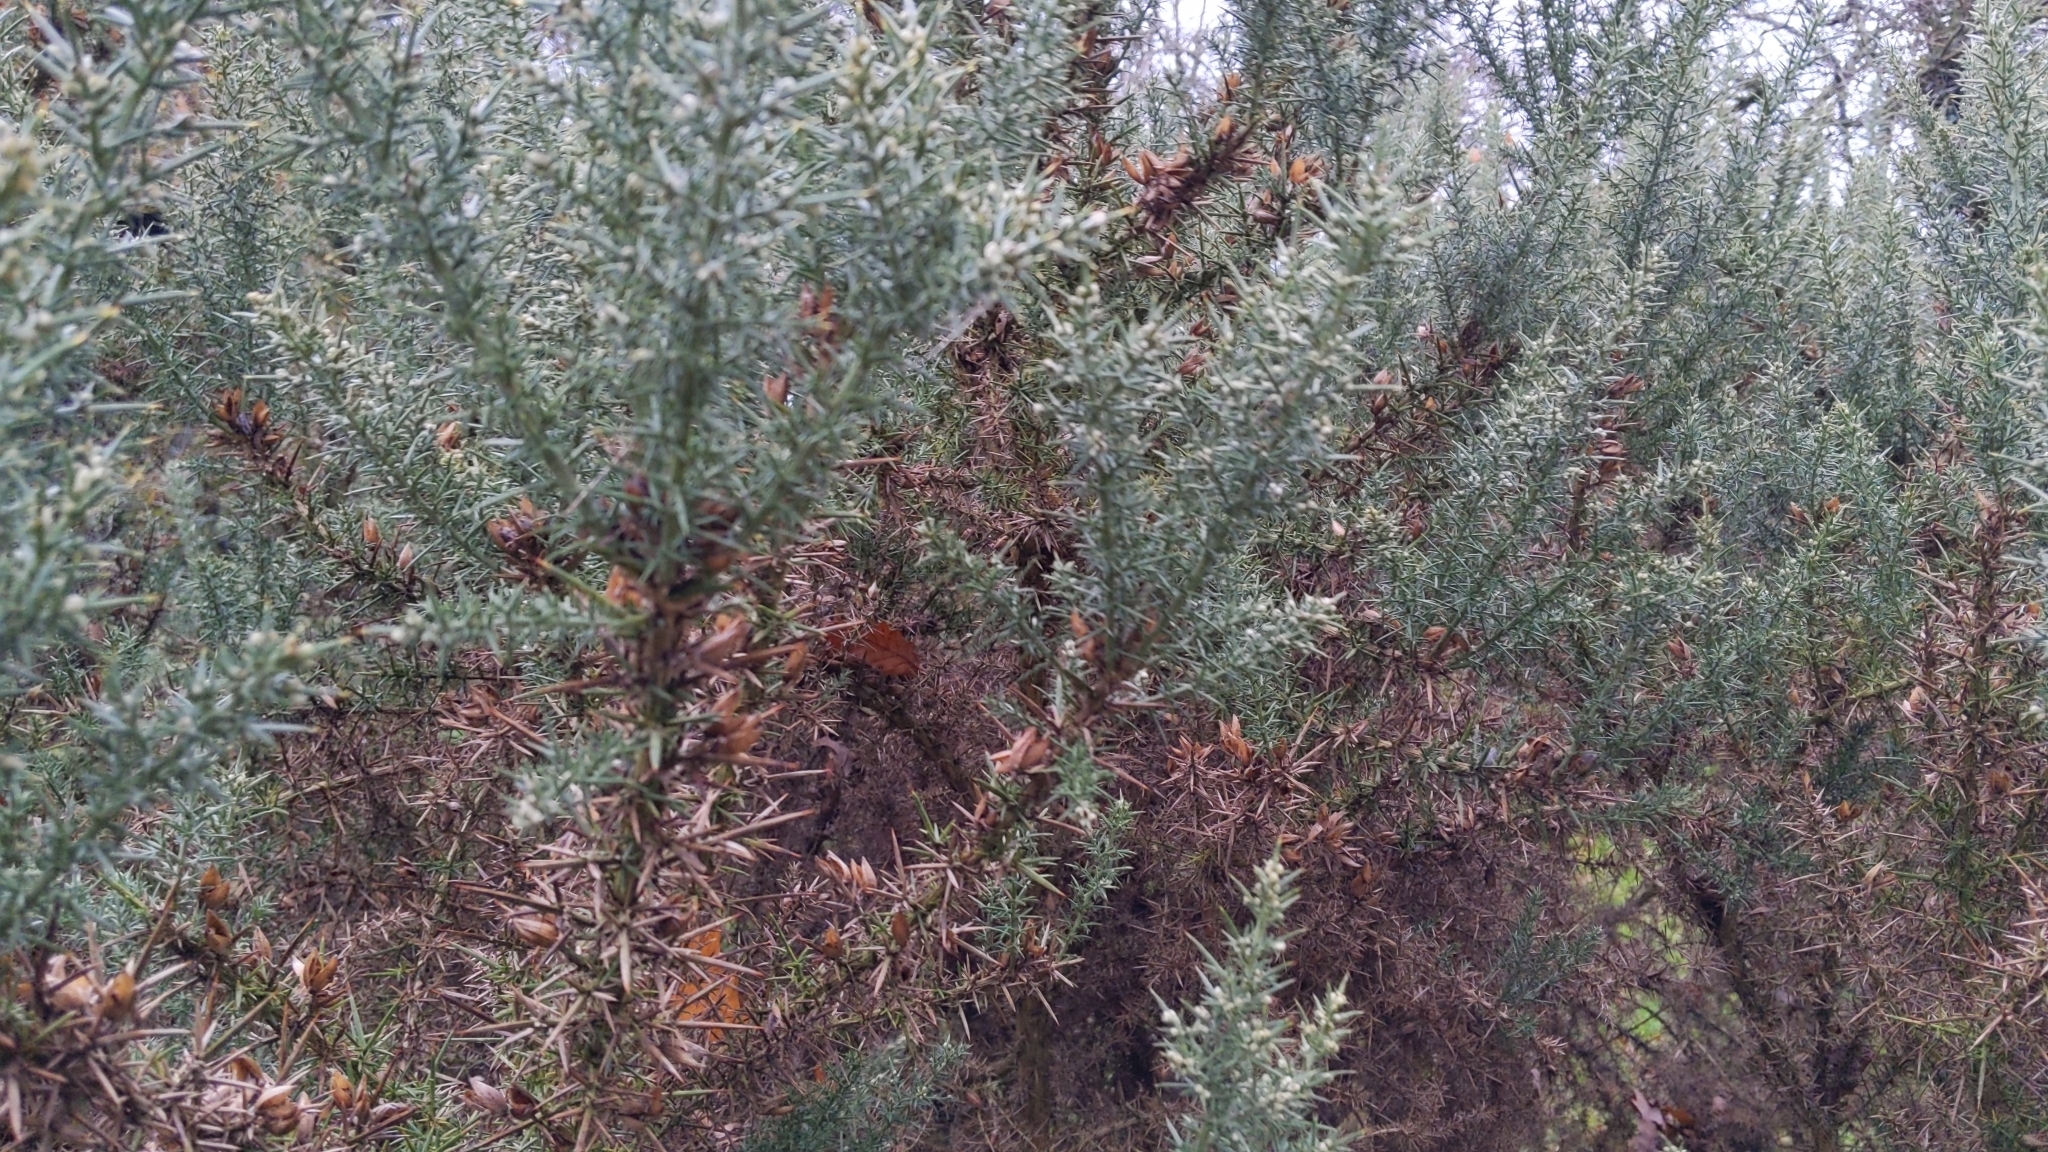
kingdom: Plantae
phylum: Tracheophyta
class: Magnoliopsida
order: Fabales
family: Fabaceae
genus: Ulex
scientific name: Ulex europaeus
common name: Common gorse
